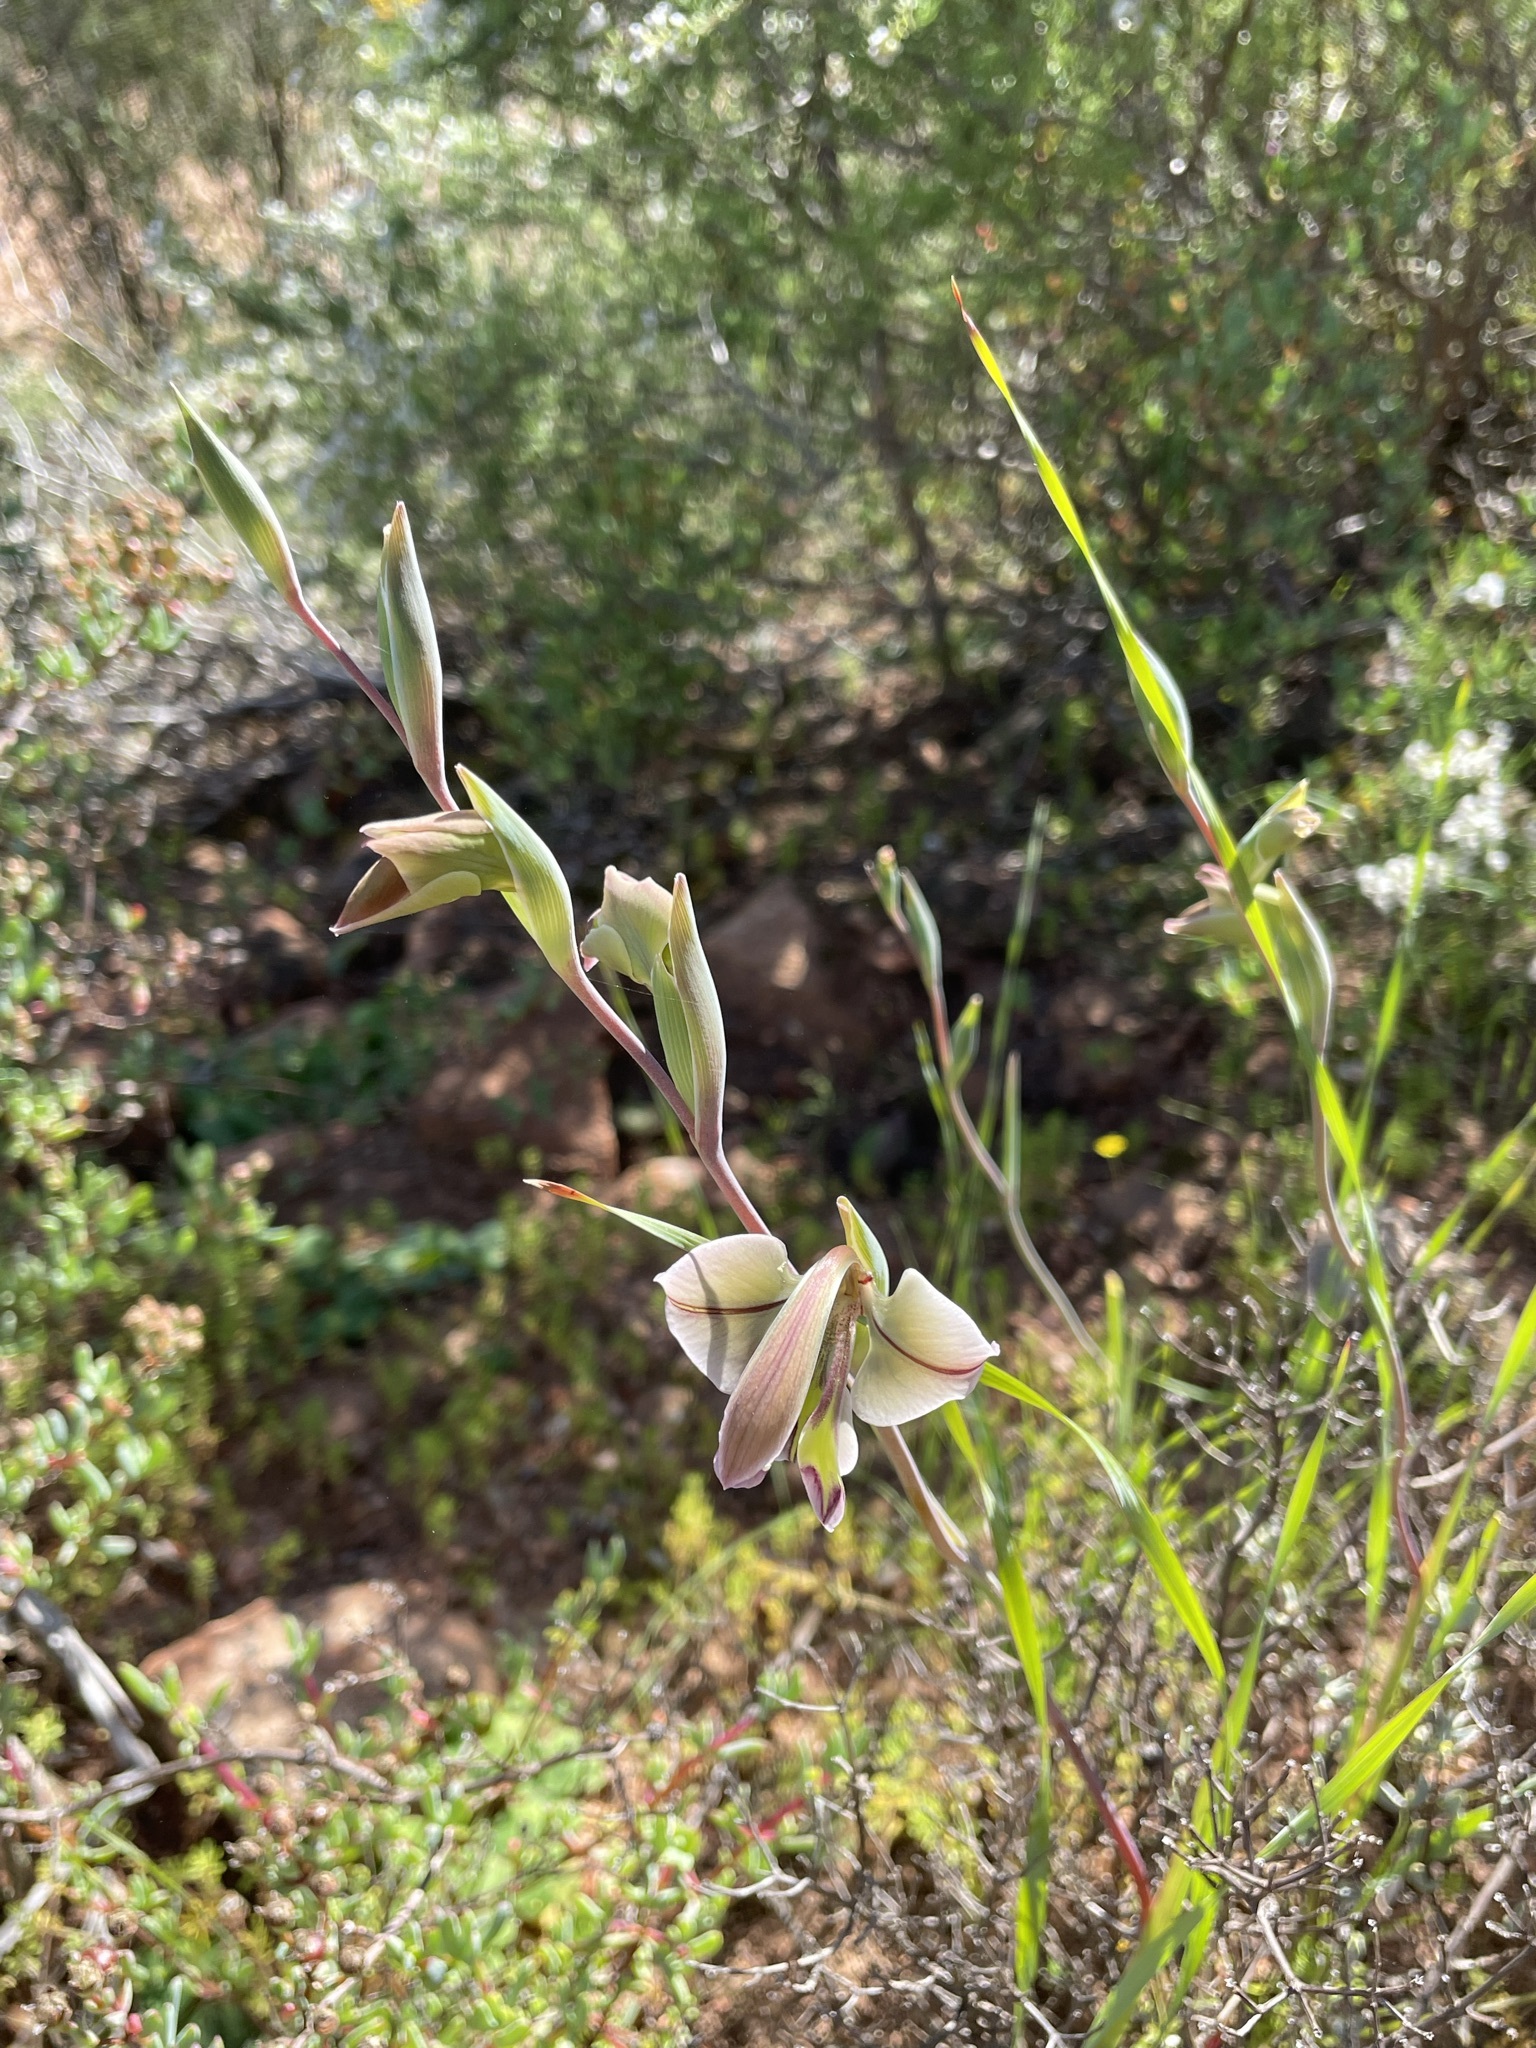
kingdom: Plantae
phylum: Tracheophyta
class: Liliopsida
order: Asparagales
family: Iridaceae
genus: Gladiolus
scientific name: Gladiolus orchidiflorus
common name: Gray kalkoentjie
